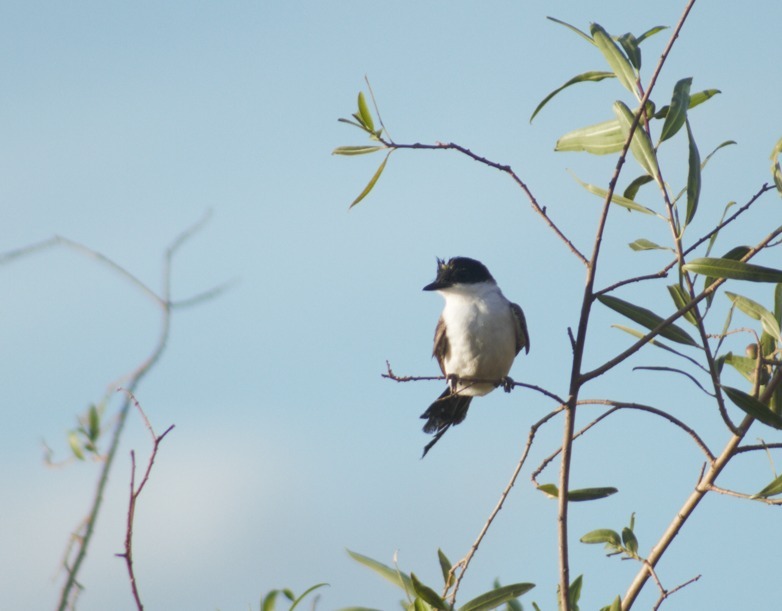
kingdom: Animalia
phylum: Chordata
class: Aves
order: Passeriformes
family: Tyrannidae
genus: Tyrannus
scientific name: Tyrannus savana
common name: Fork-tailed flycatcher
